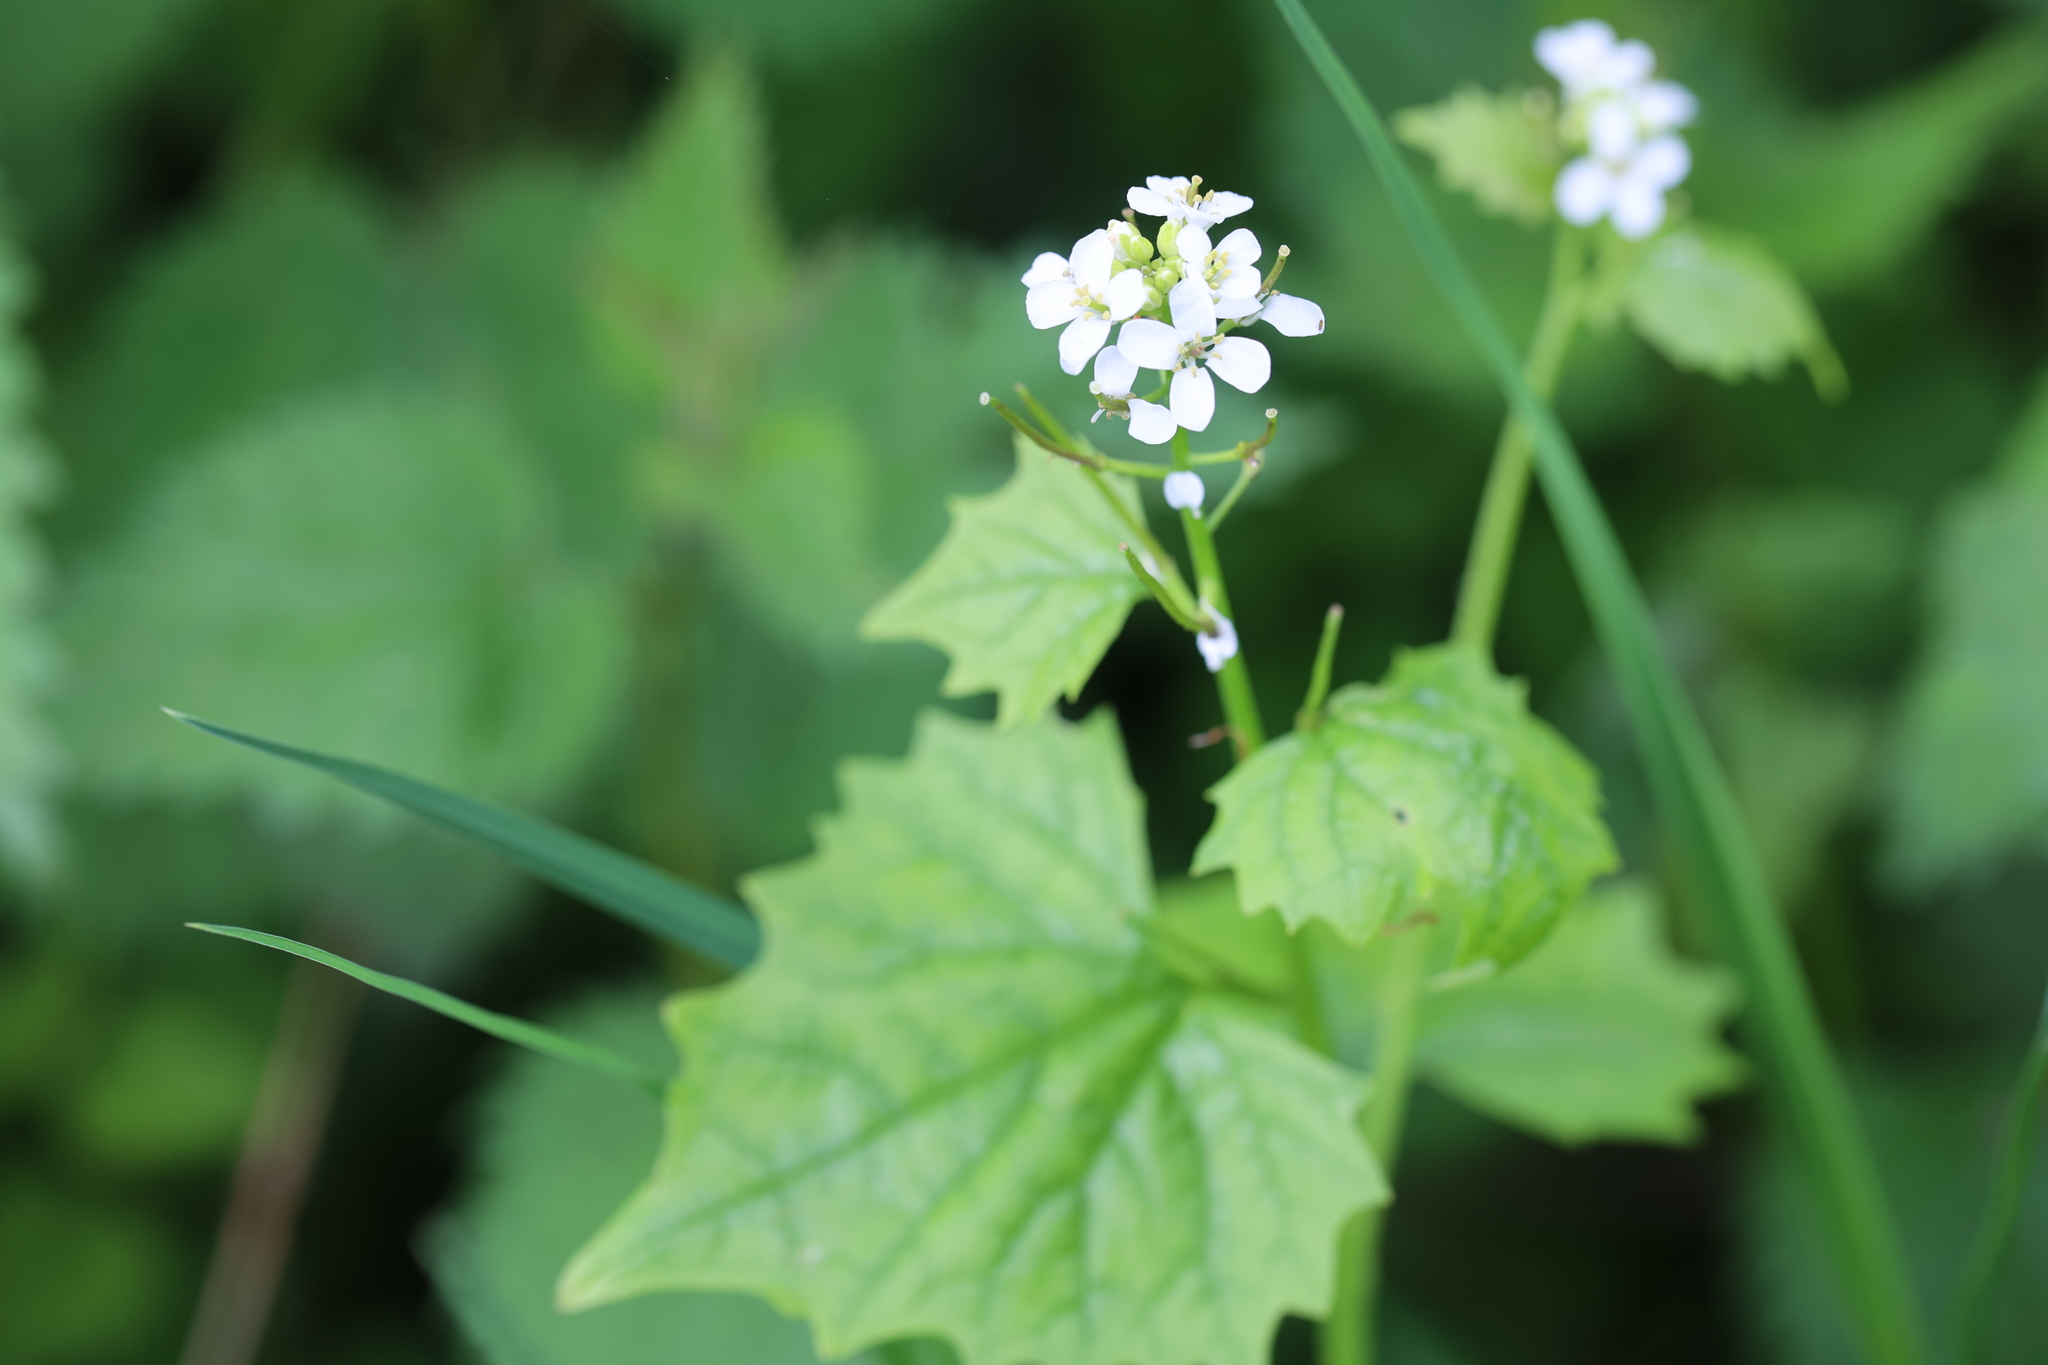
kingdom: Plantae
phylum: Tracheophyta
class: Magnoliopsida
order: Brassicales
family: Brassicaceae
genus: Alliaria
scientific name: Alliaria petiolata
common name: Garlic mustard
